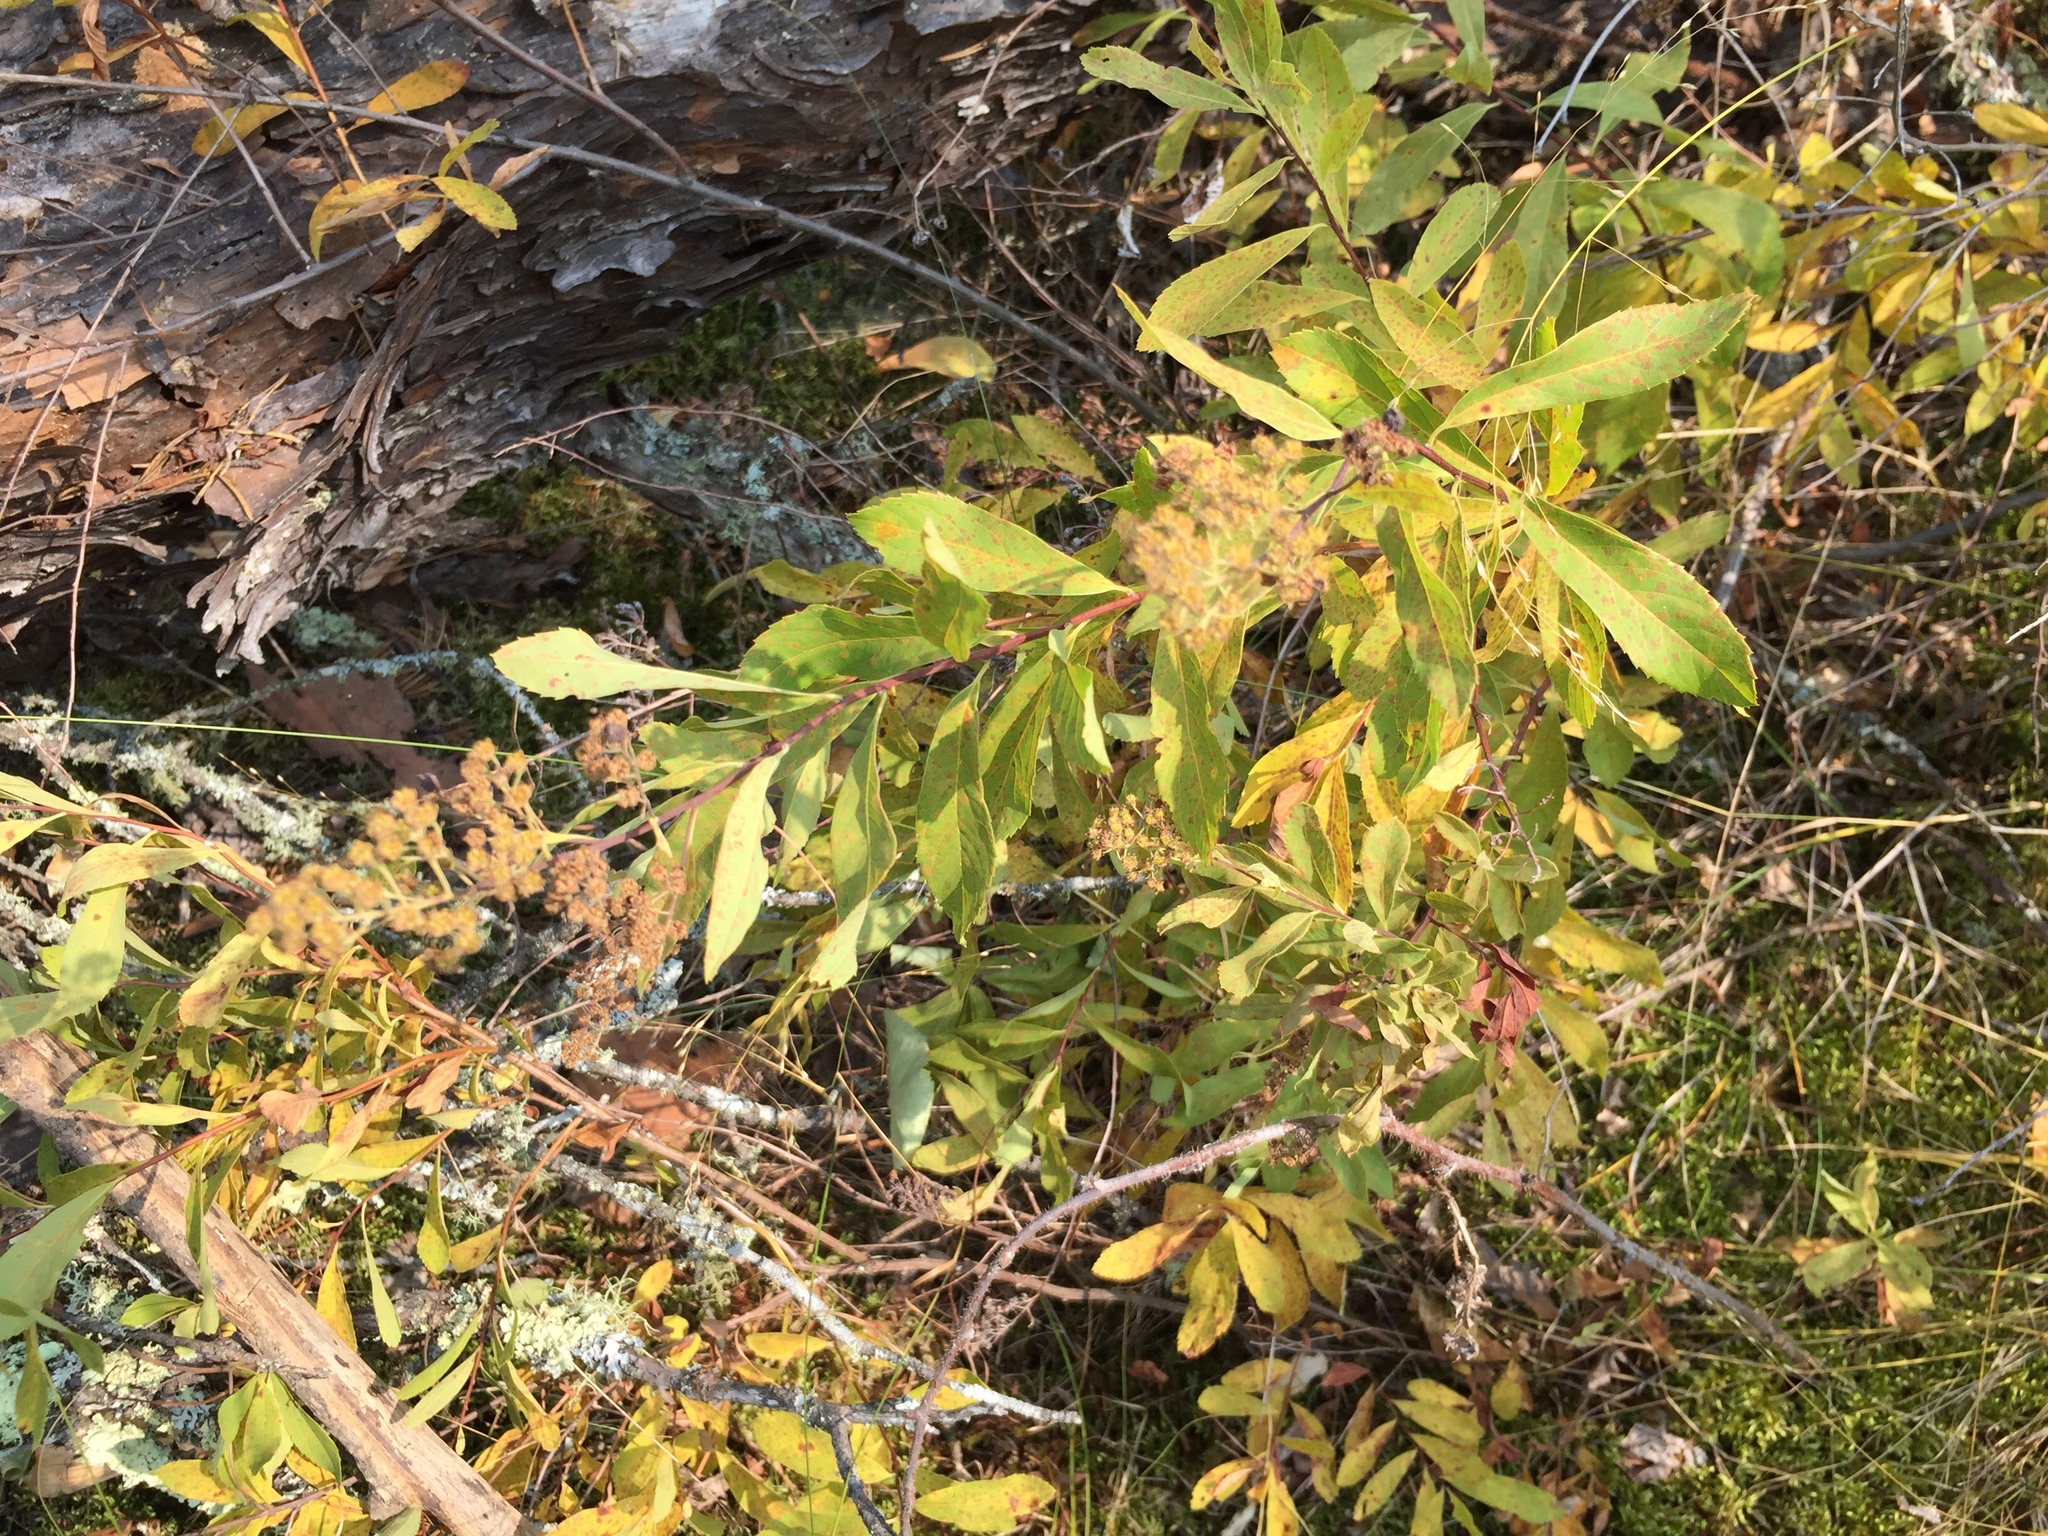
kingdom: Plantae
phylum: Tracheophyta
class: Magnoliopsida
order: Rosales
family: Rosaceae
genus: Spiraea
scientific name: Spiraea alba
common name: Pale bridewort
